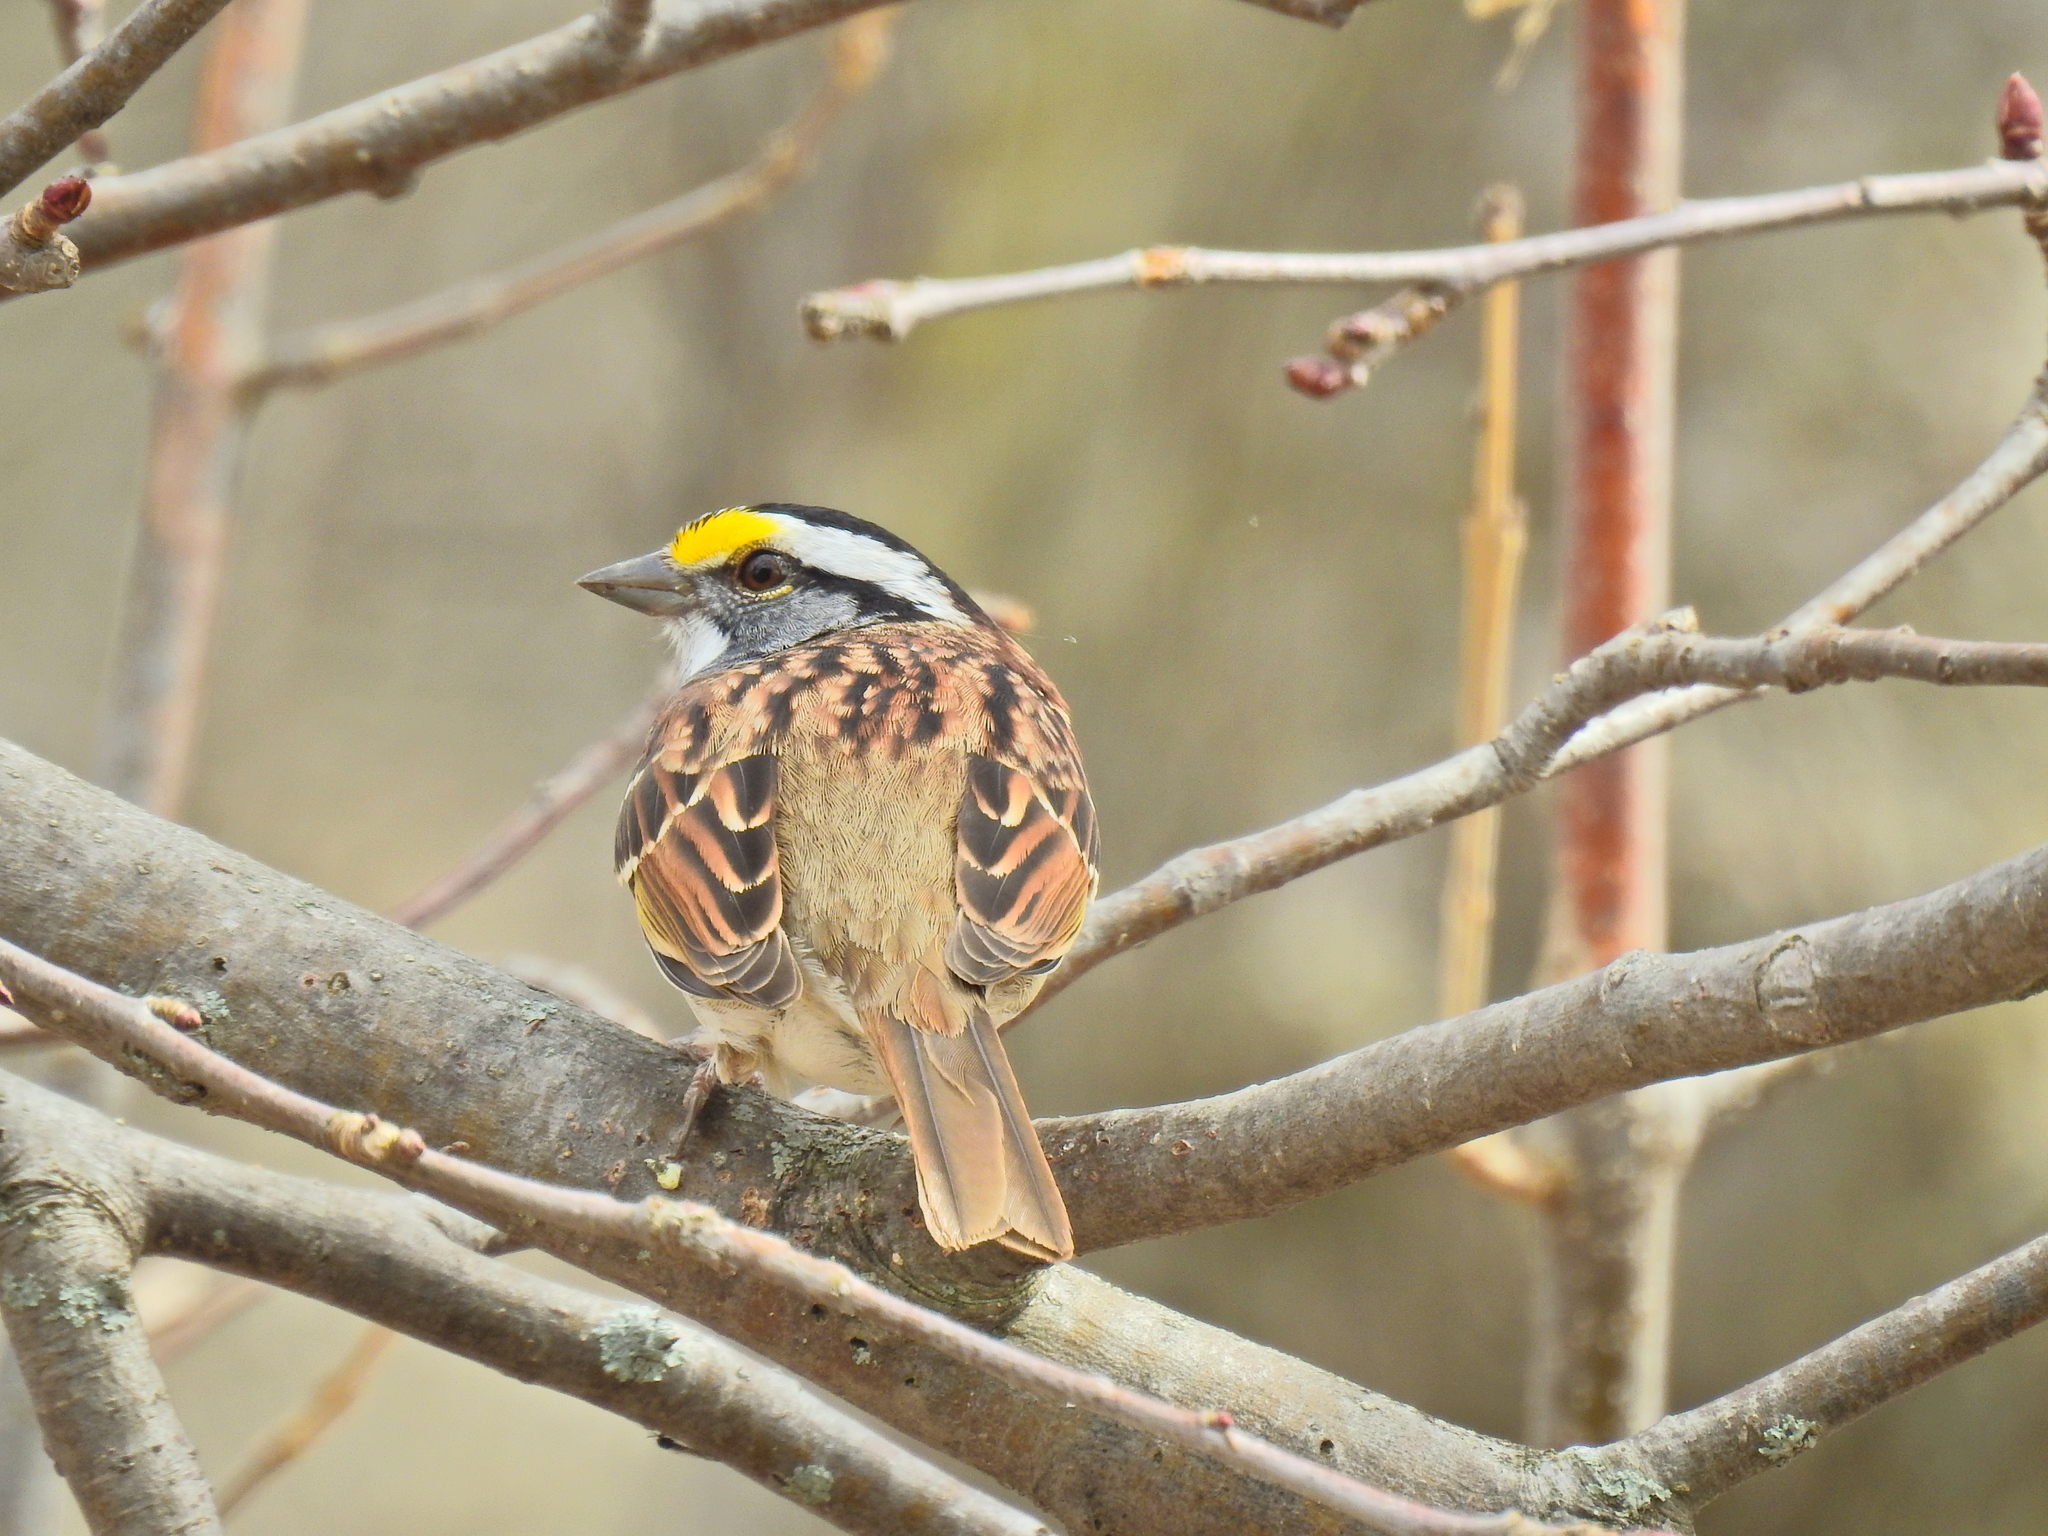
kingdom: Animalia
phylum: Chordata
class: Aves
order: Passeriformes
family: Passerellidae
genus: Zonotrichia
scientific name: Zonotrichia albicollis
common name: White-throated sparrow
